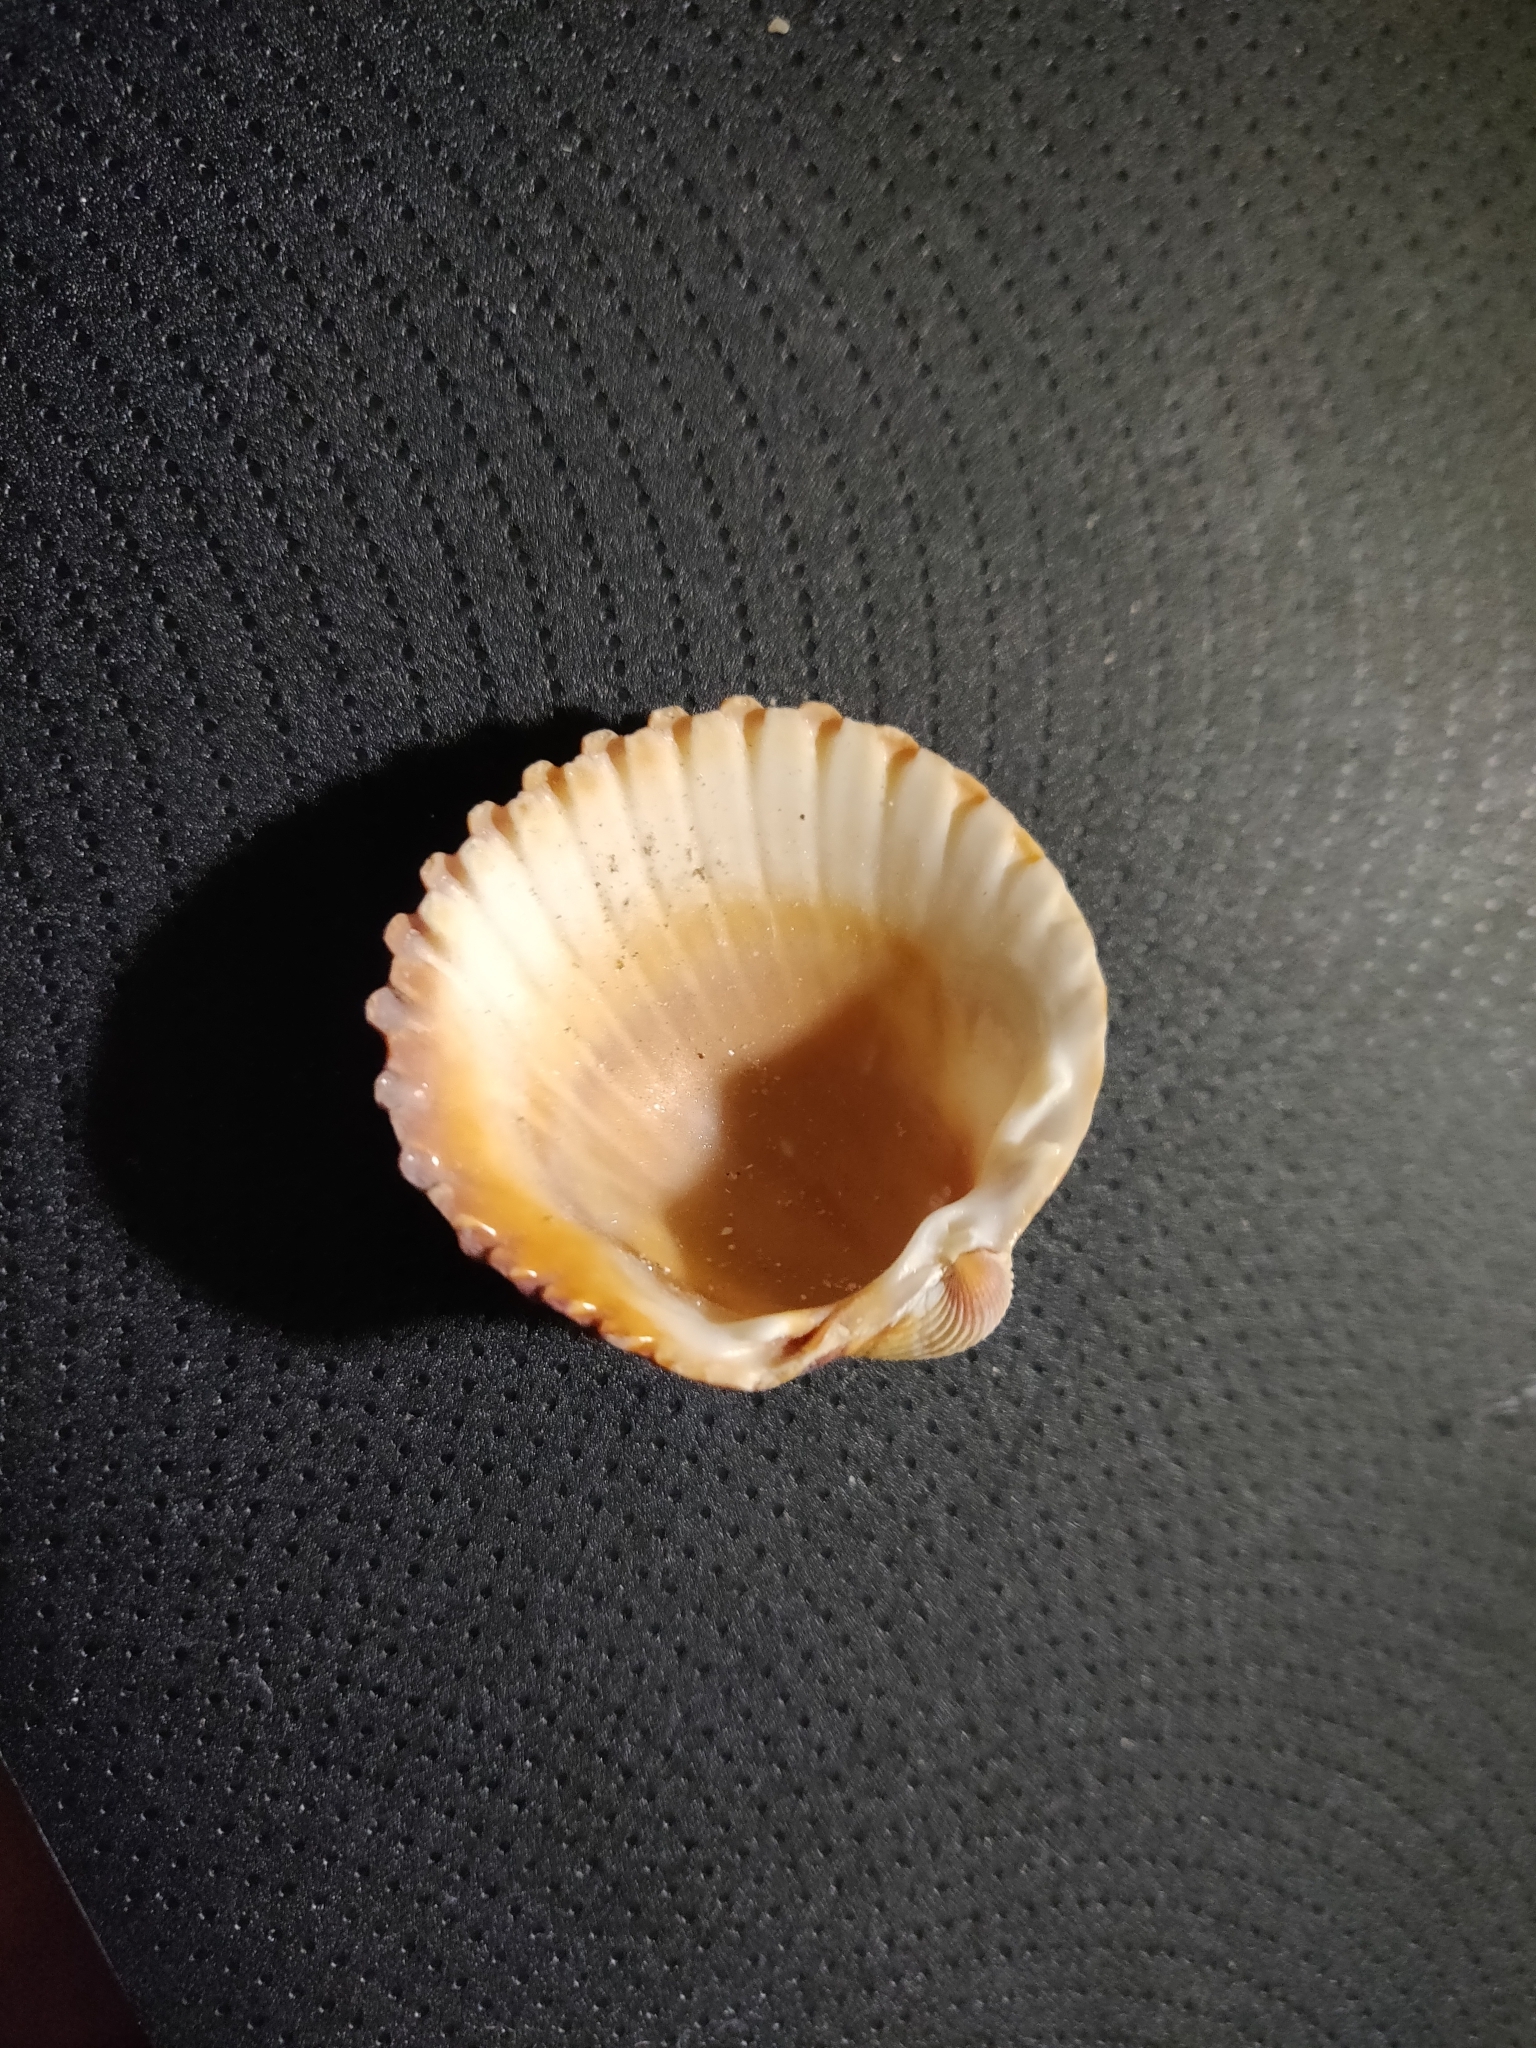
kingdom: Animalia
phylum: Mollusca
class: Bivalvia
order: Cardiida
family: Cardiidae
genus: Acanthocardia
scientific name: Acanthocardia tuberculata
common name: Rough cockle
